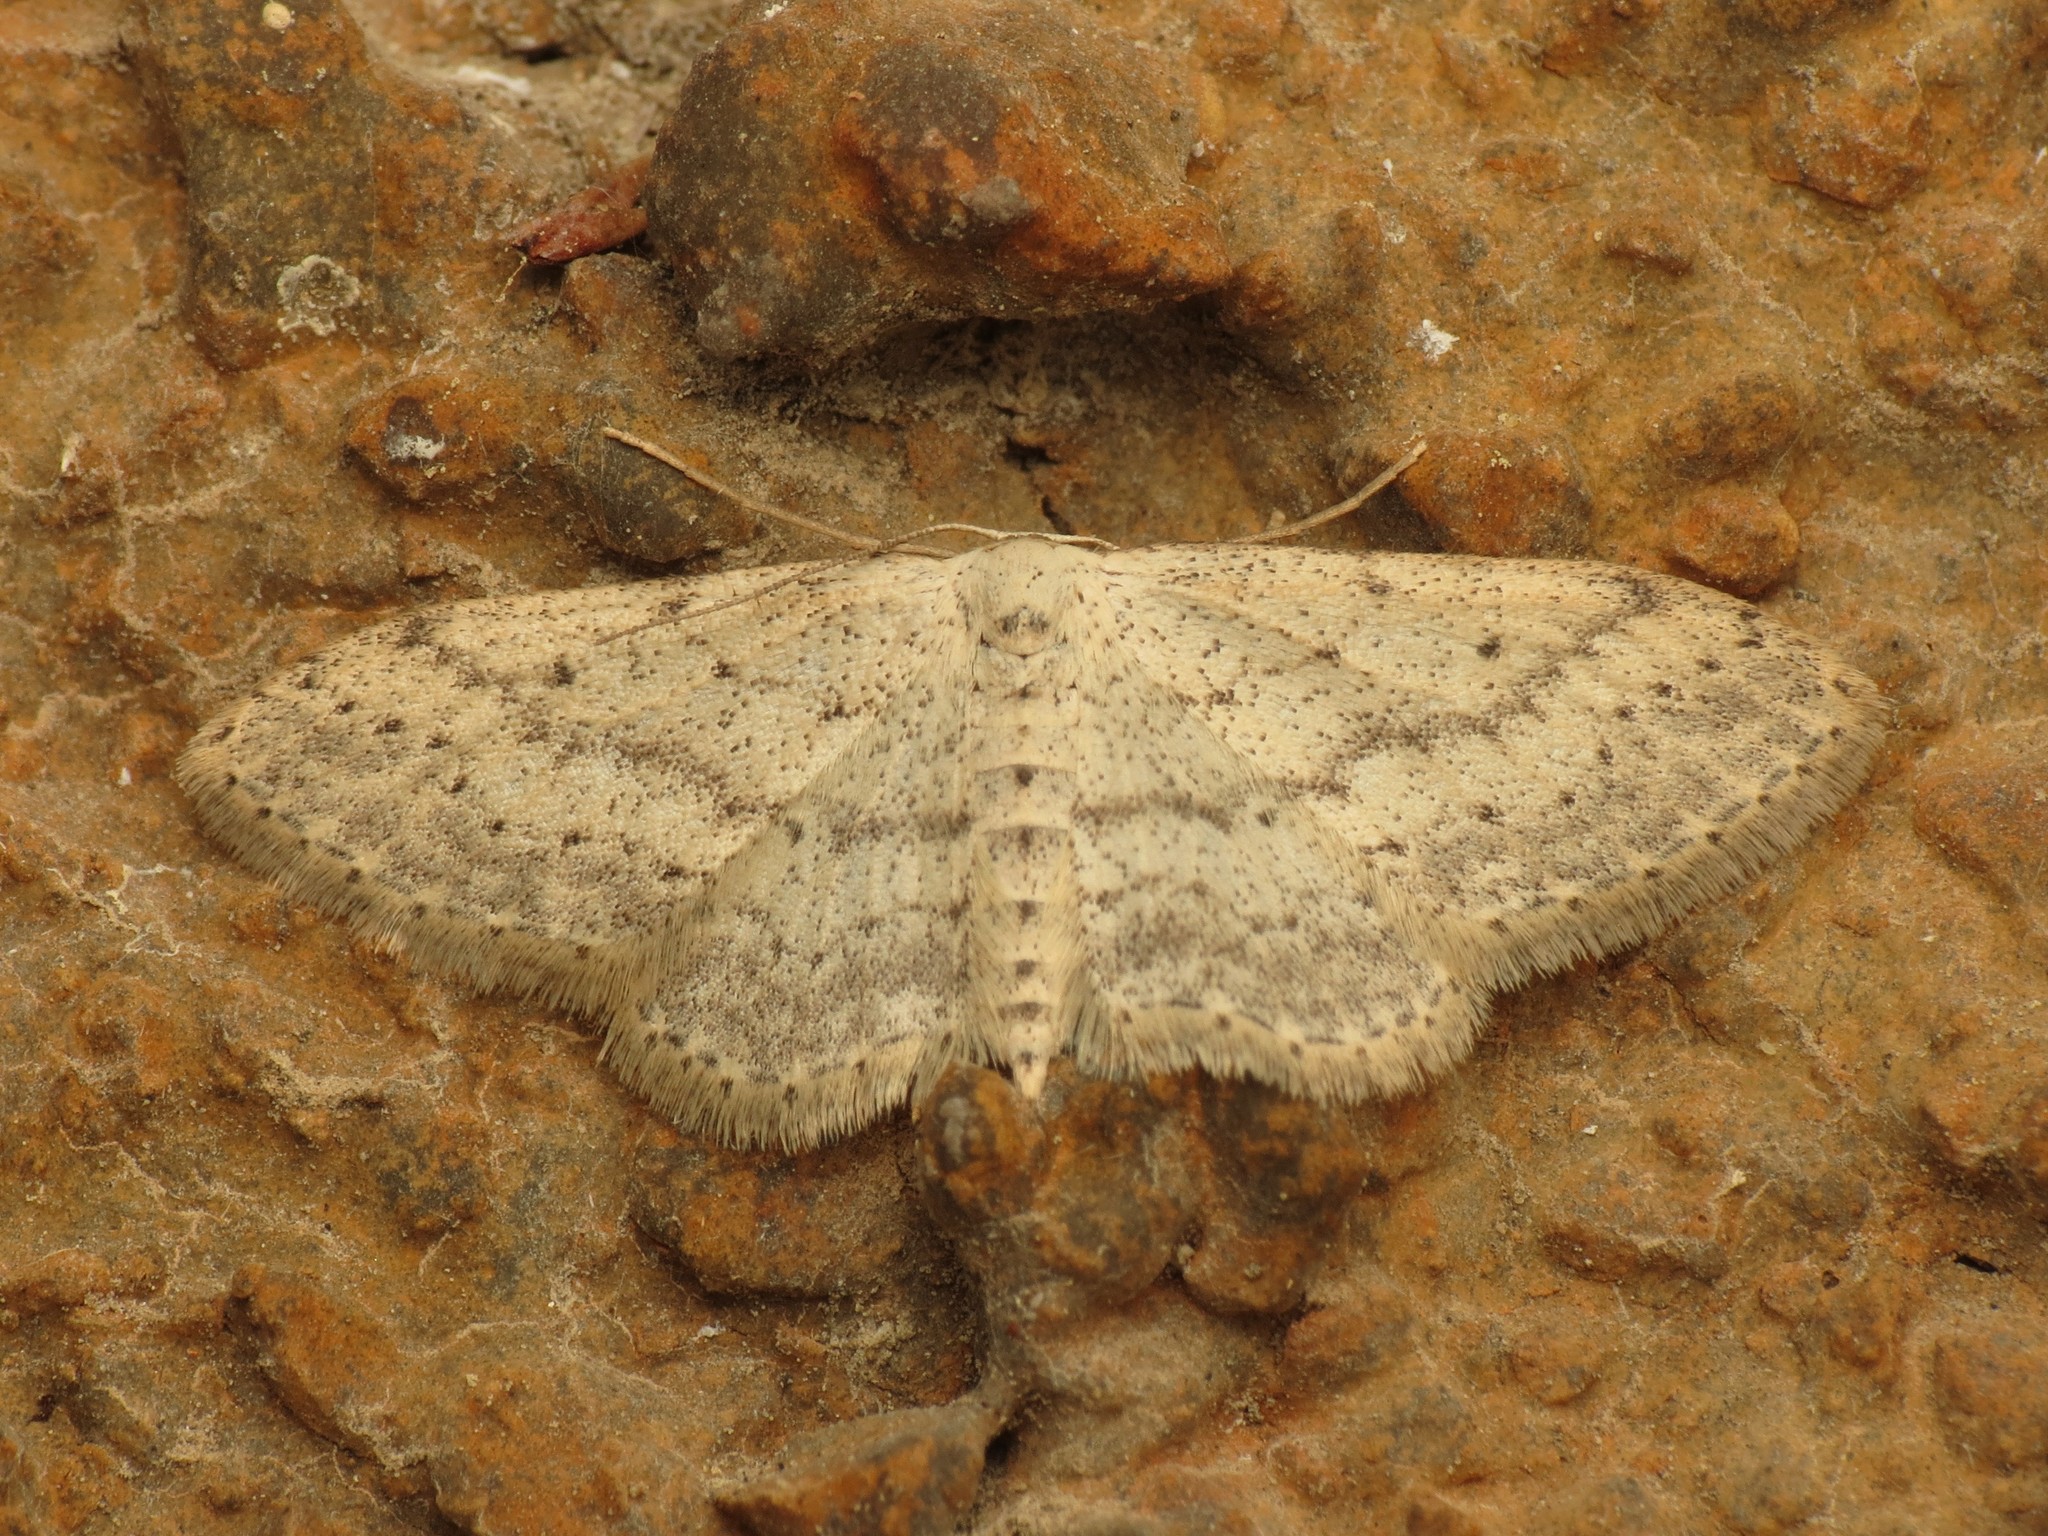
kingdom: Animalia
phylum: Arthropoda
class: Insecta
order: Lepidoptera
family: Geometridae
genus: Idaea
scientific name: Idaea seriata
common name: Small dusty wave
